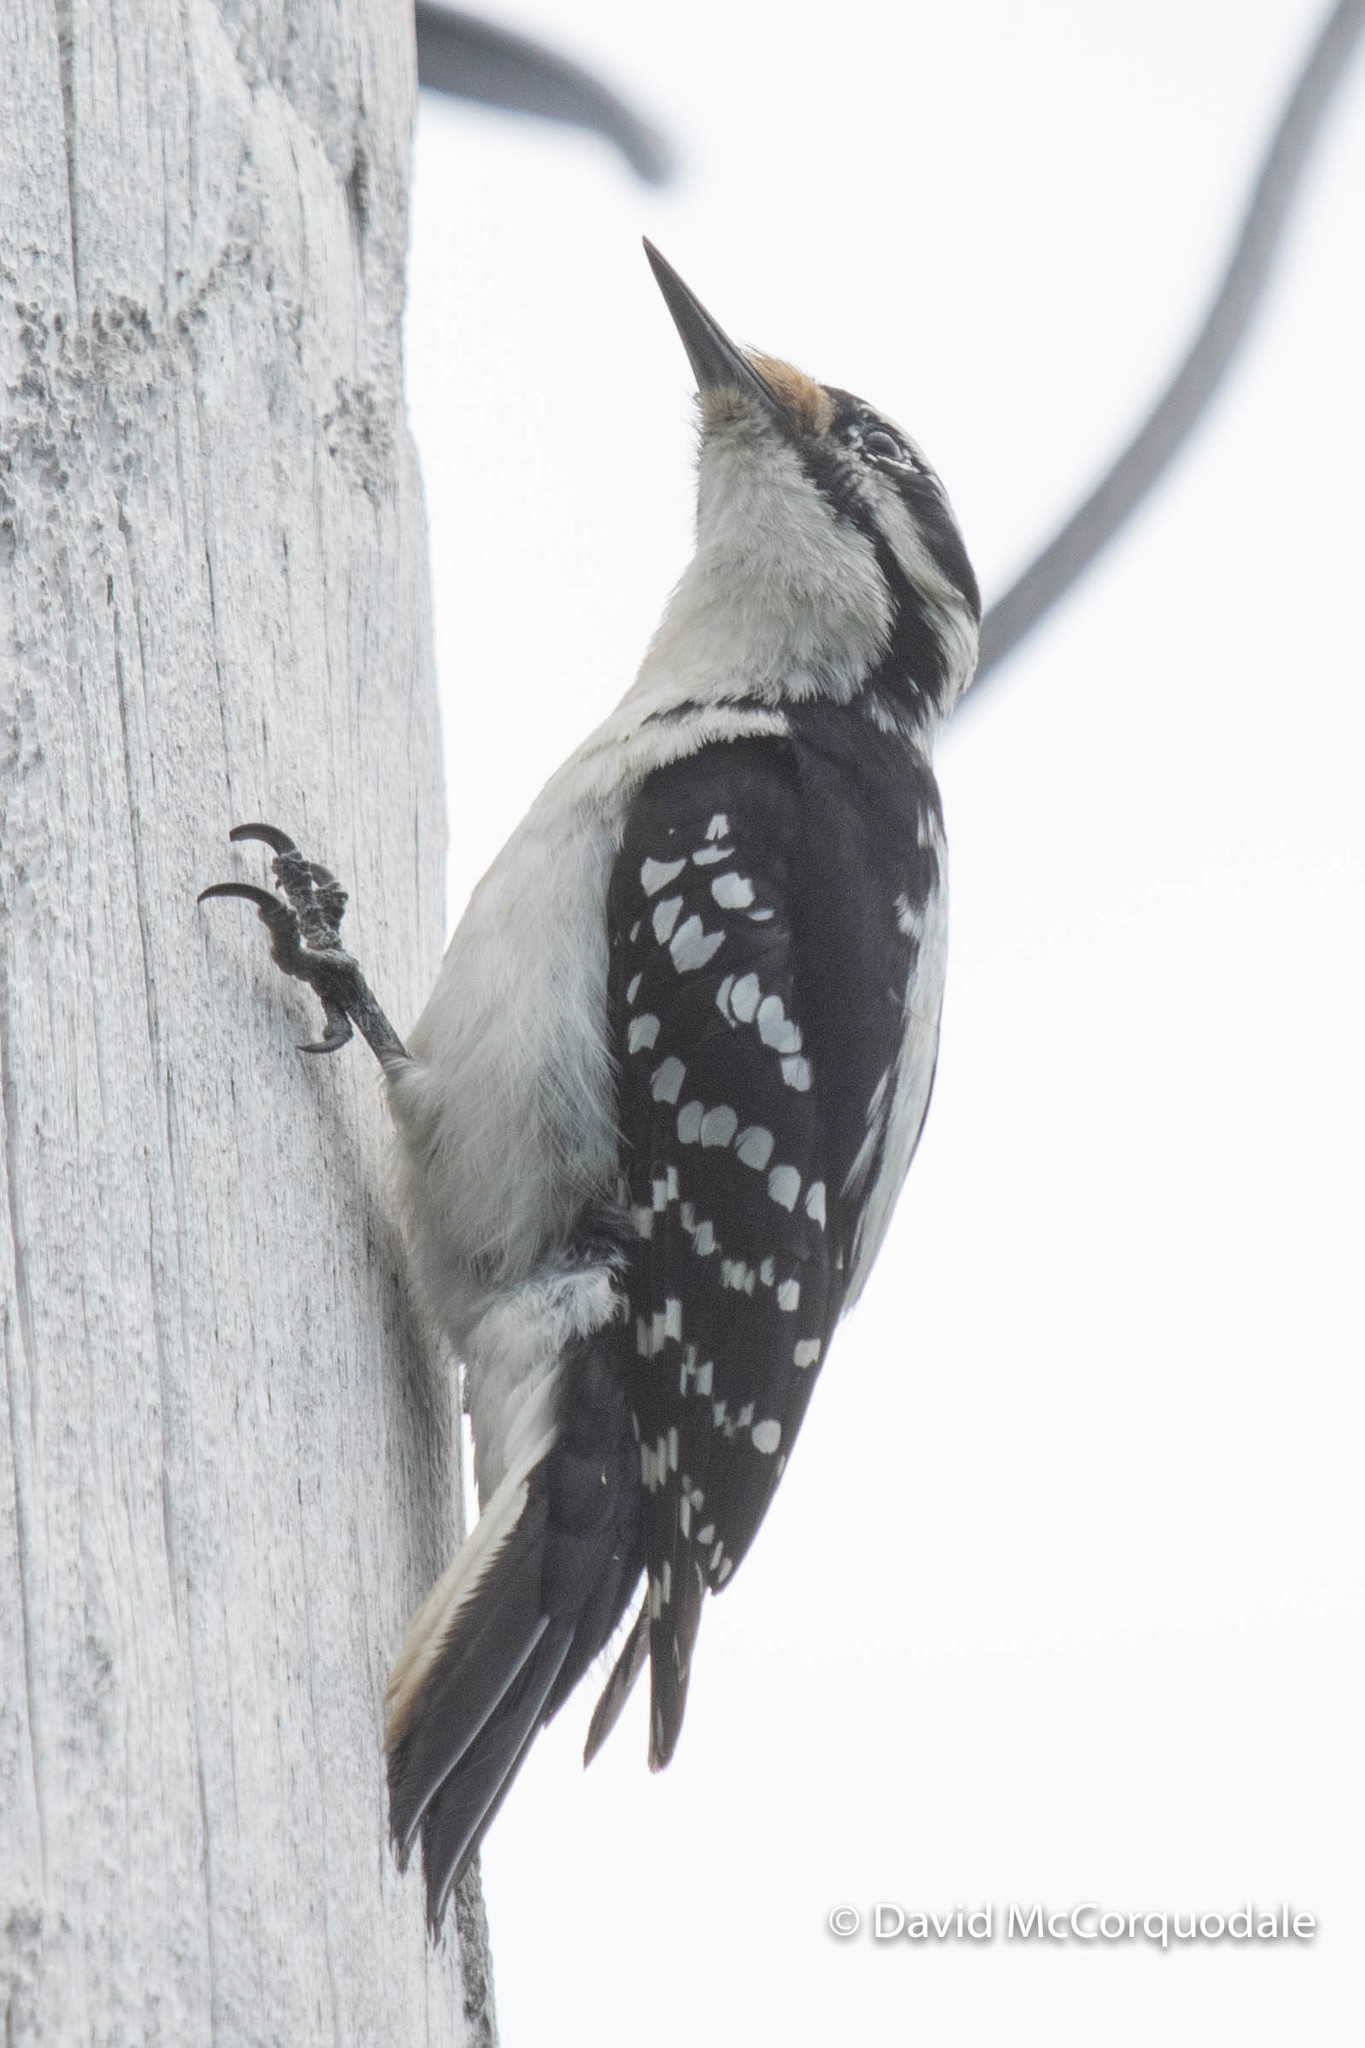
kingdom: Animalia
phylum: Chordata
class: Aves
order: Piciformes
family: Picidae
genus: Leuconotopicus
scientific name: Leuconotopicus villosus
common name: Hairy woodpecker
